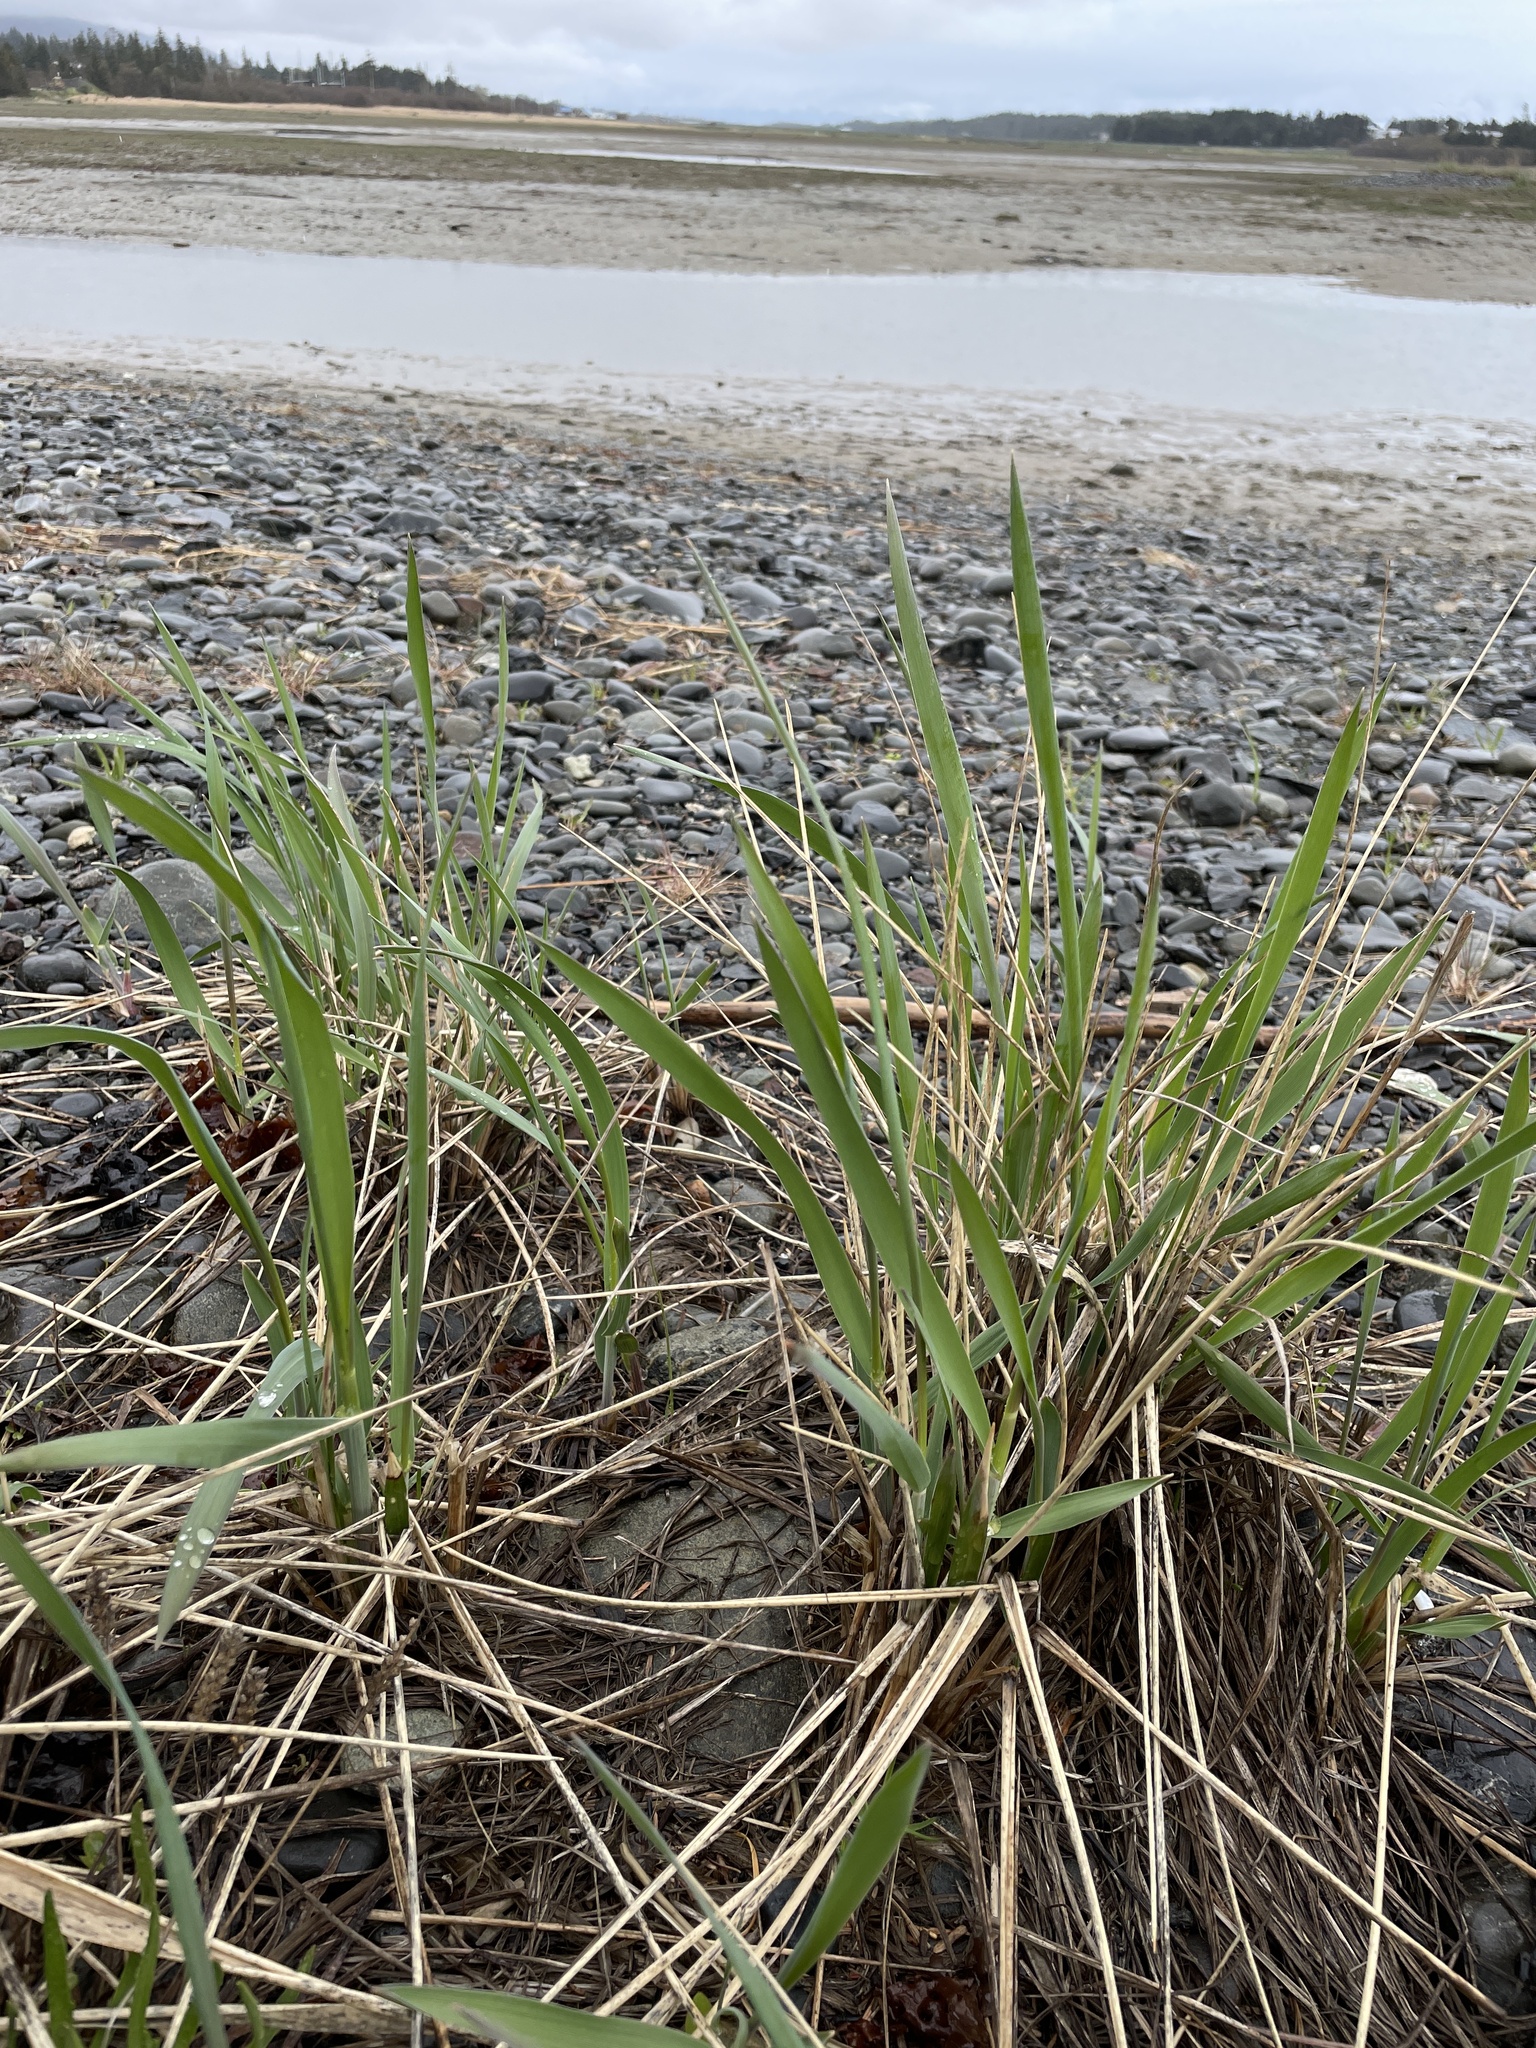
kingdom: Plantae
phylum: Tracheophyta
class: Liliopsida
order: Poales
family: Poaceae
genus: Leymus
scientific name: Leymus mollis
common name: American dune grass
